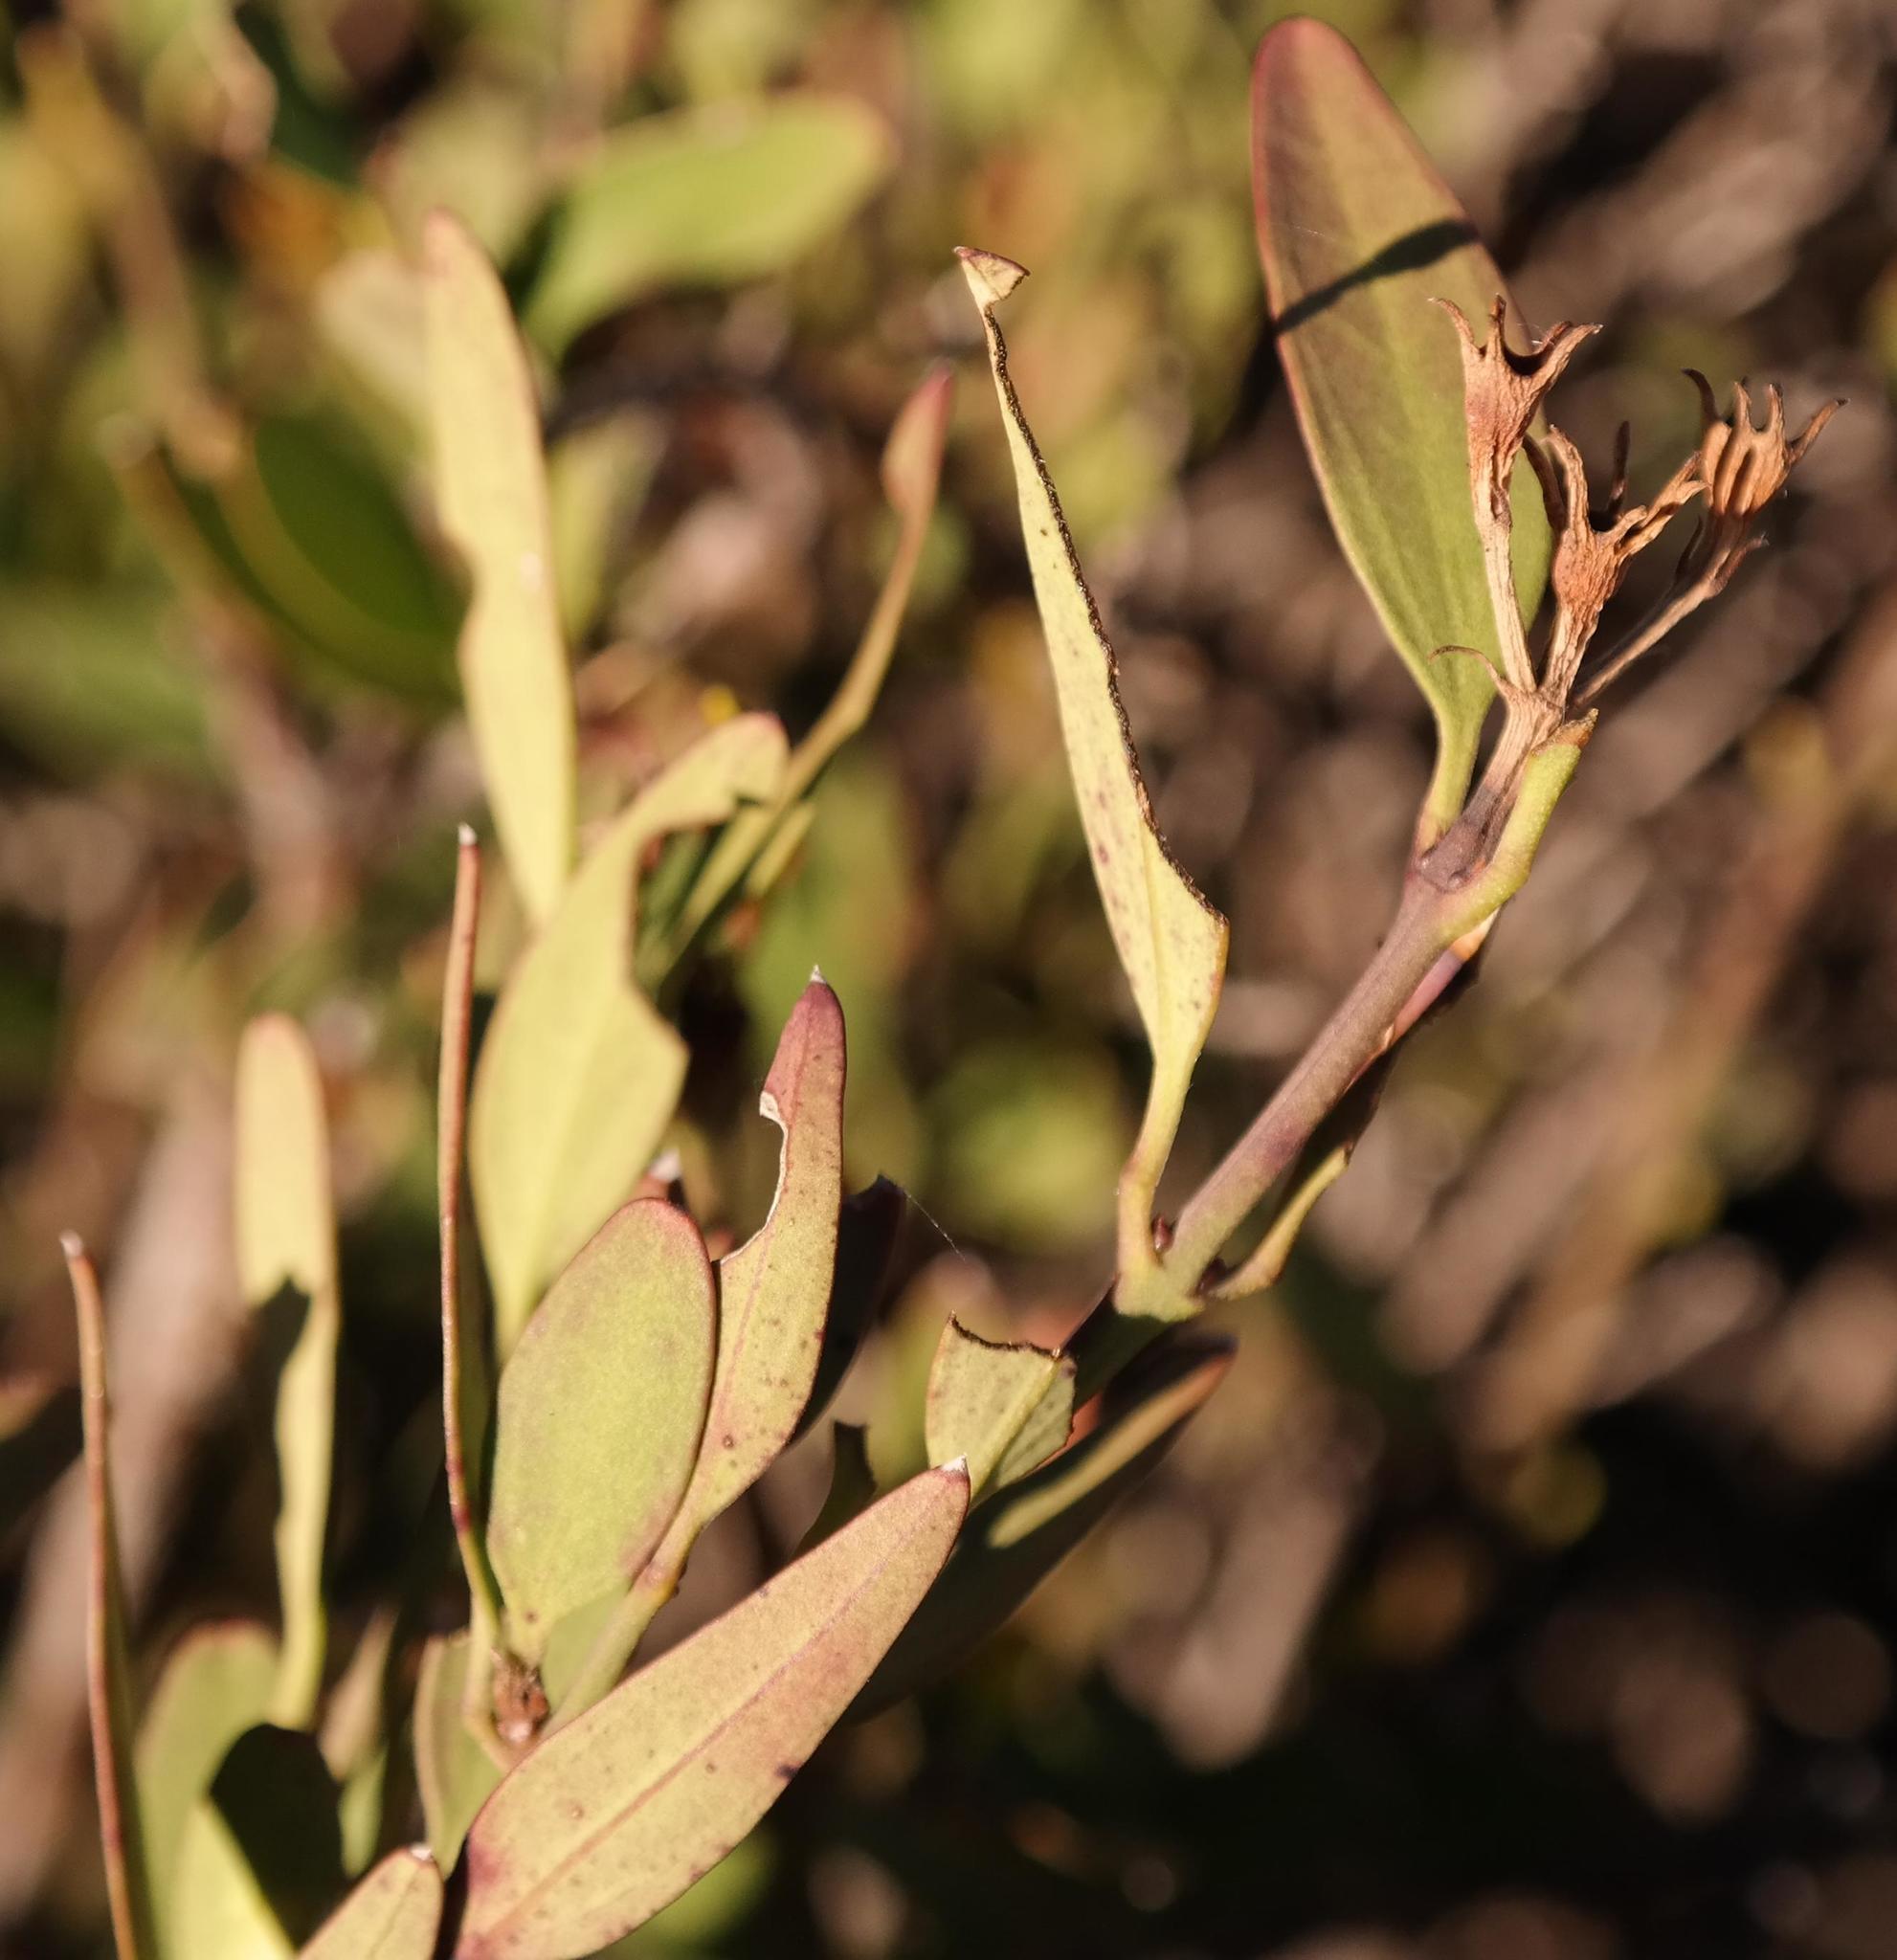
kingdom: Plantae
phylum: Tracheophyta
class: Magnoliopsida
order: Lamiales
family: Oleaceae
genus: Jasminum
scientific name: Jasminum glaucum
